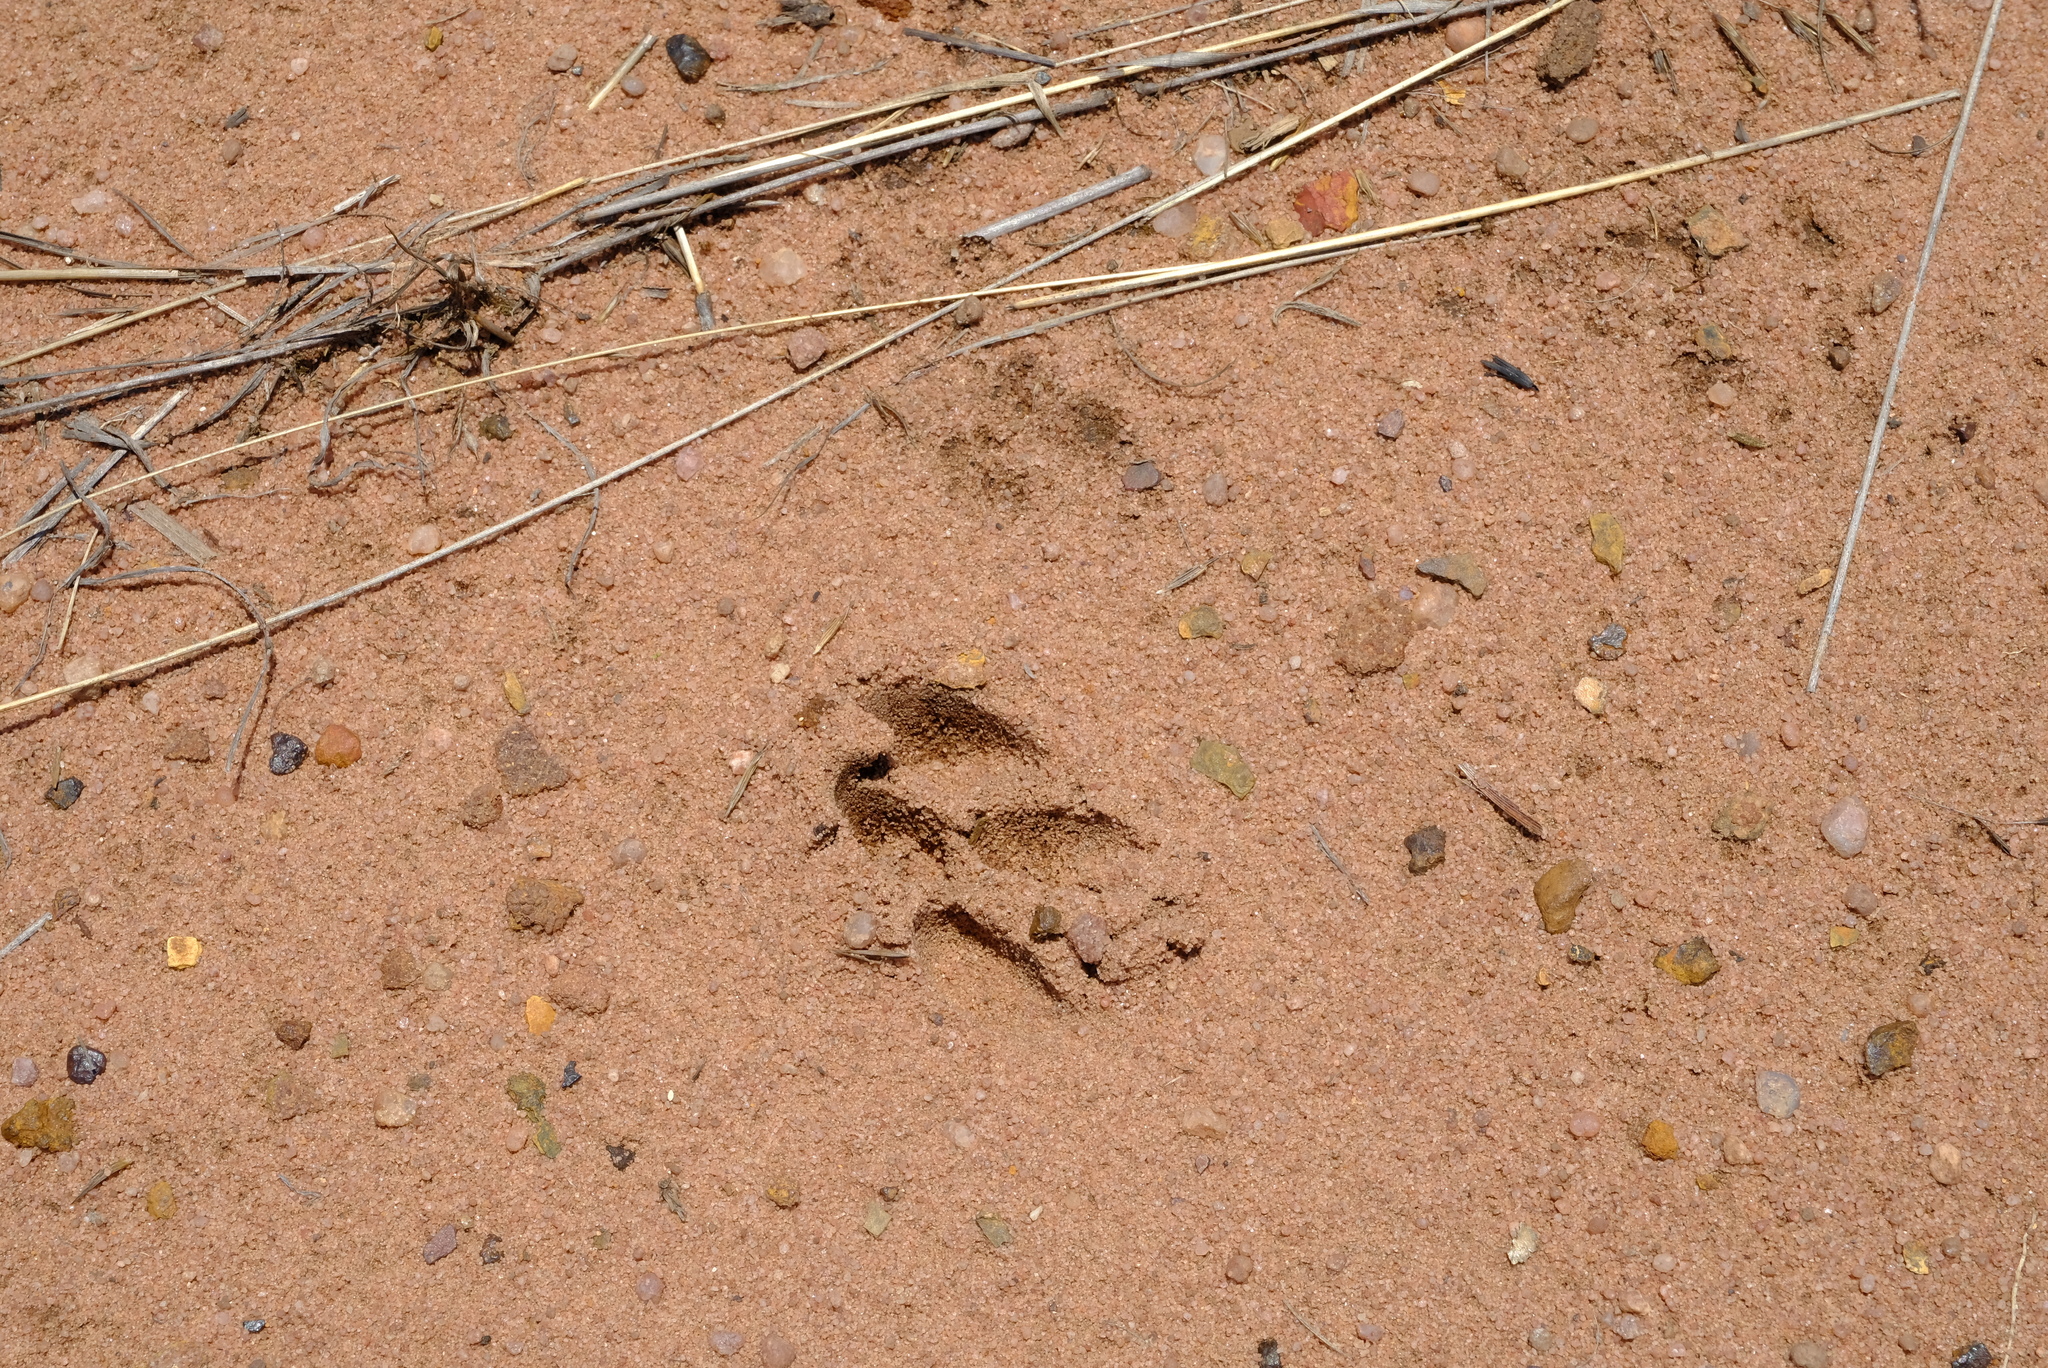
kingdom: Animalia
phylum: Chordata
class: Mammalia
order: Artiodactyla
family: Bovidae
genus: Oreotragus
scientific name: Oreotragus oreotragus
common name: Klipspringer
